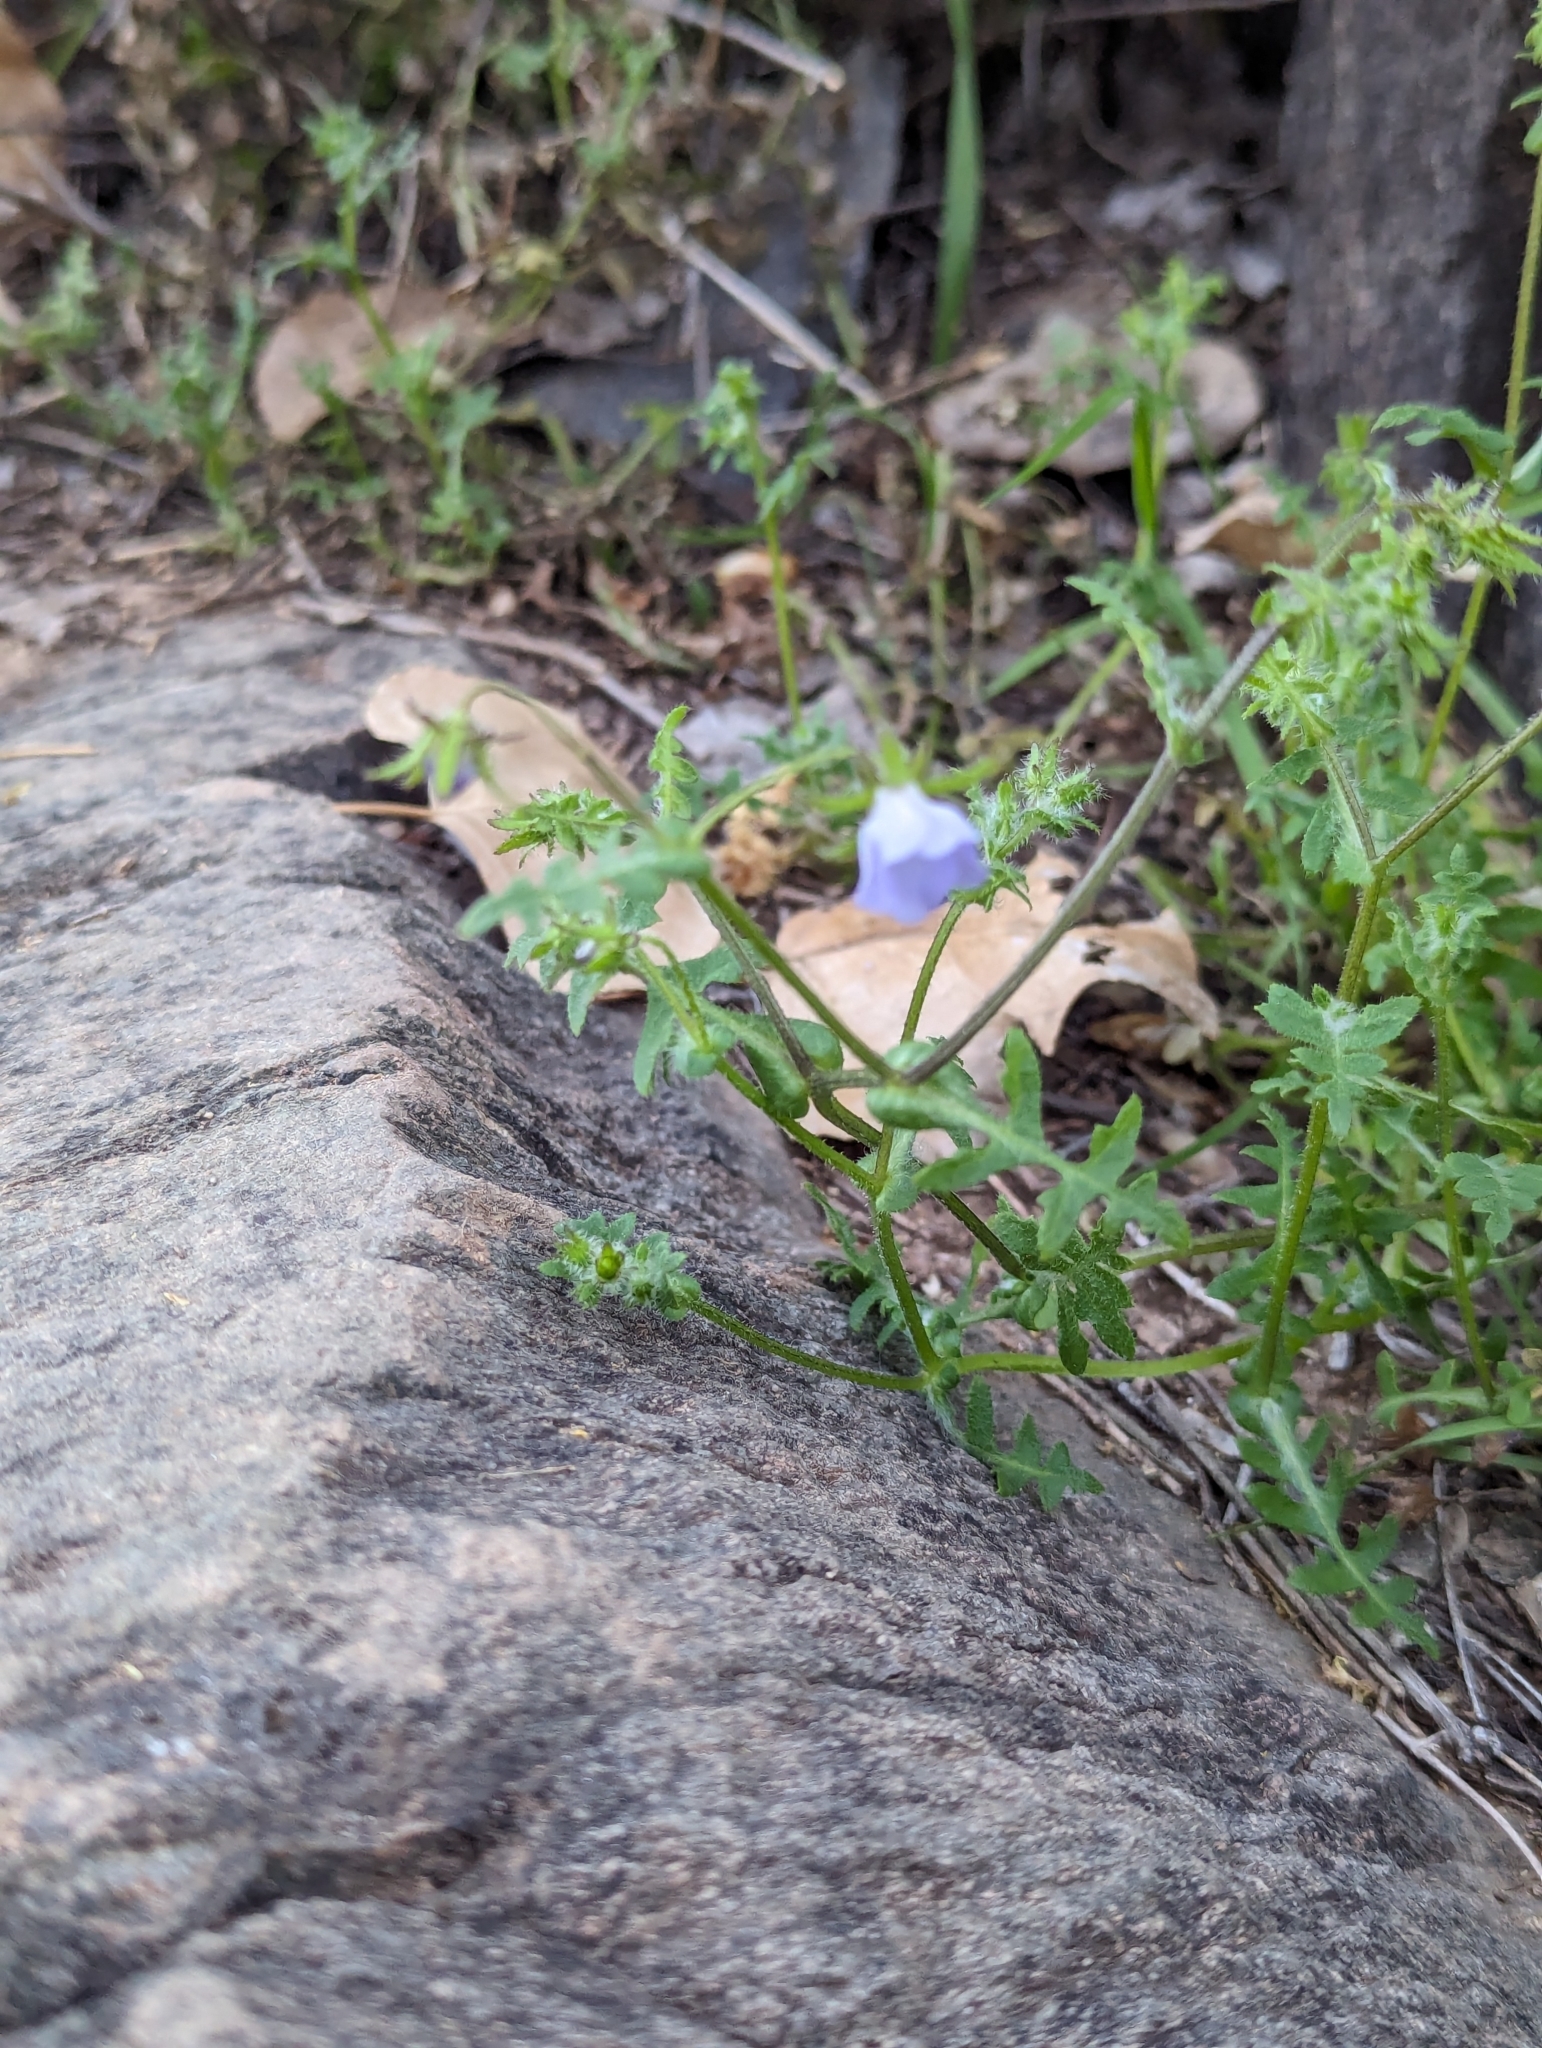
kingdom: Plantae
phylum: Tracheophyta
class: Magnoliopsida
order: Boraginales
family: Hydrophyllaceae
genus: Pholistoma
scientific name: Pholistoma auritum
